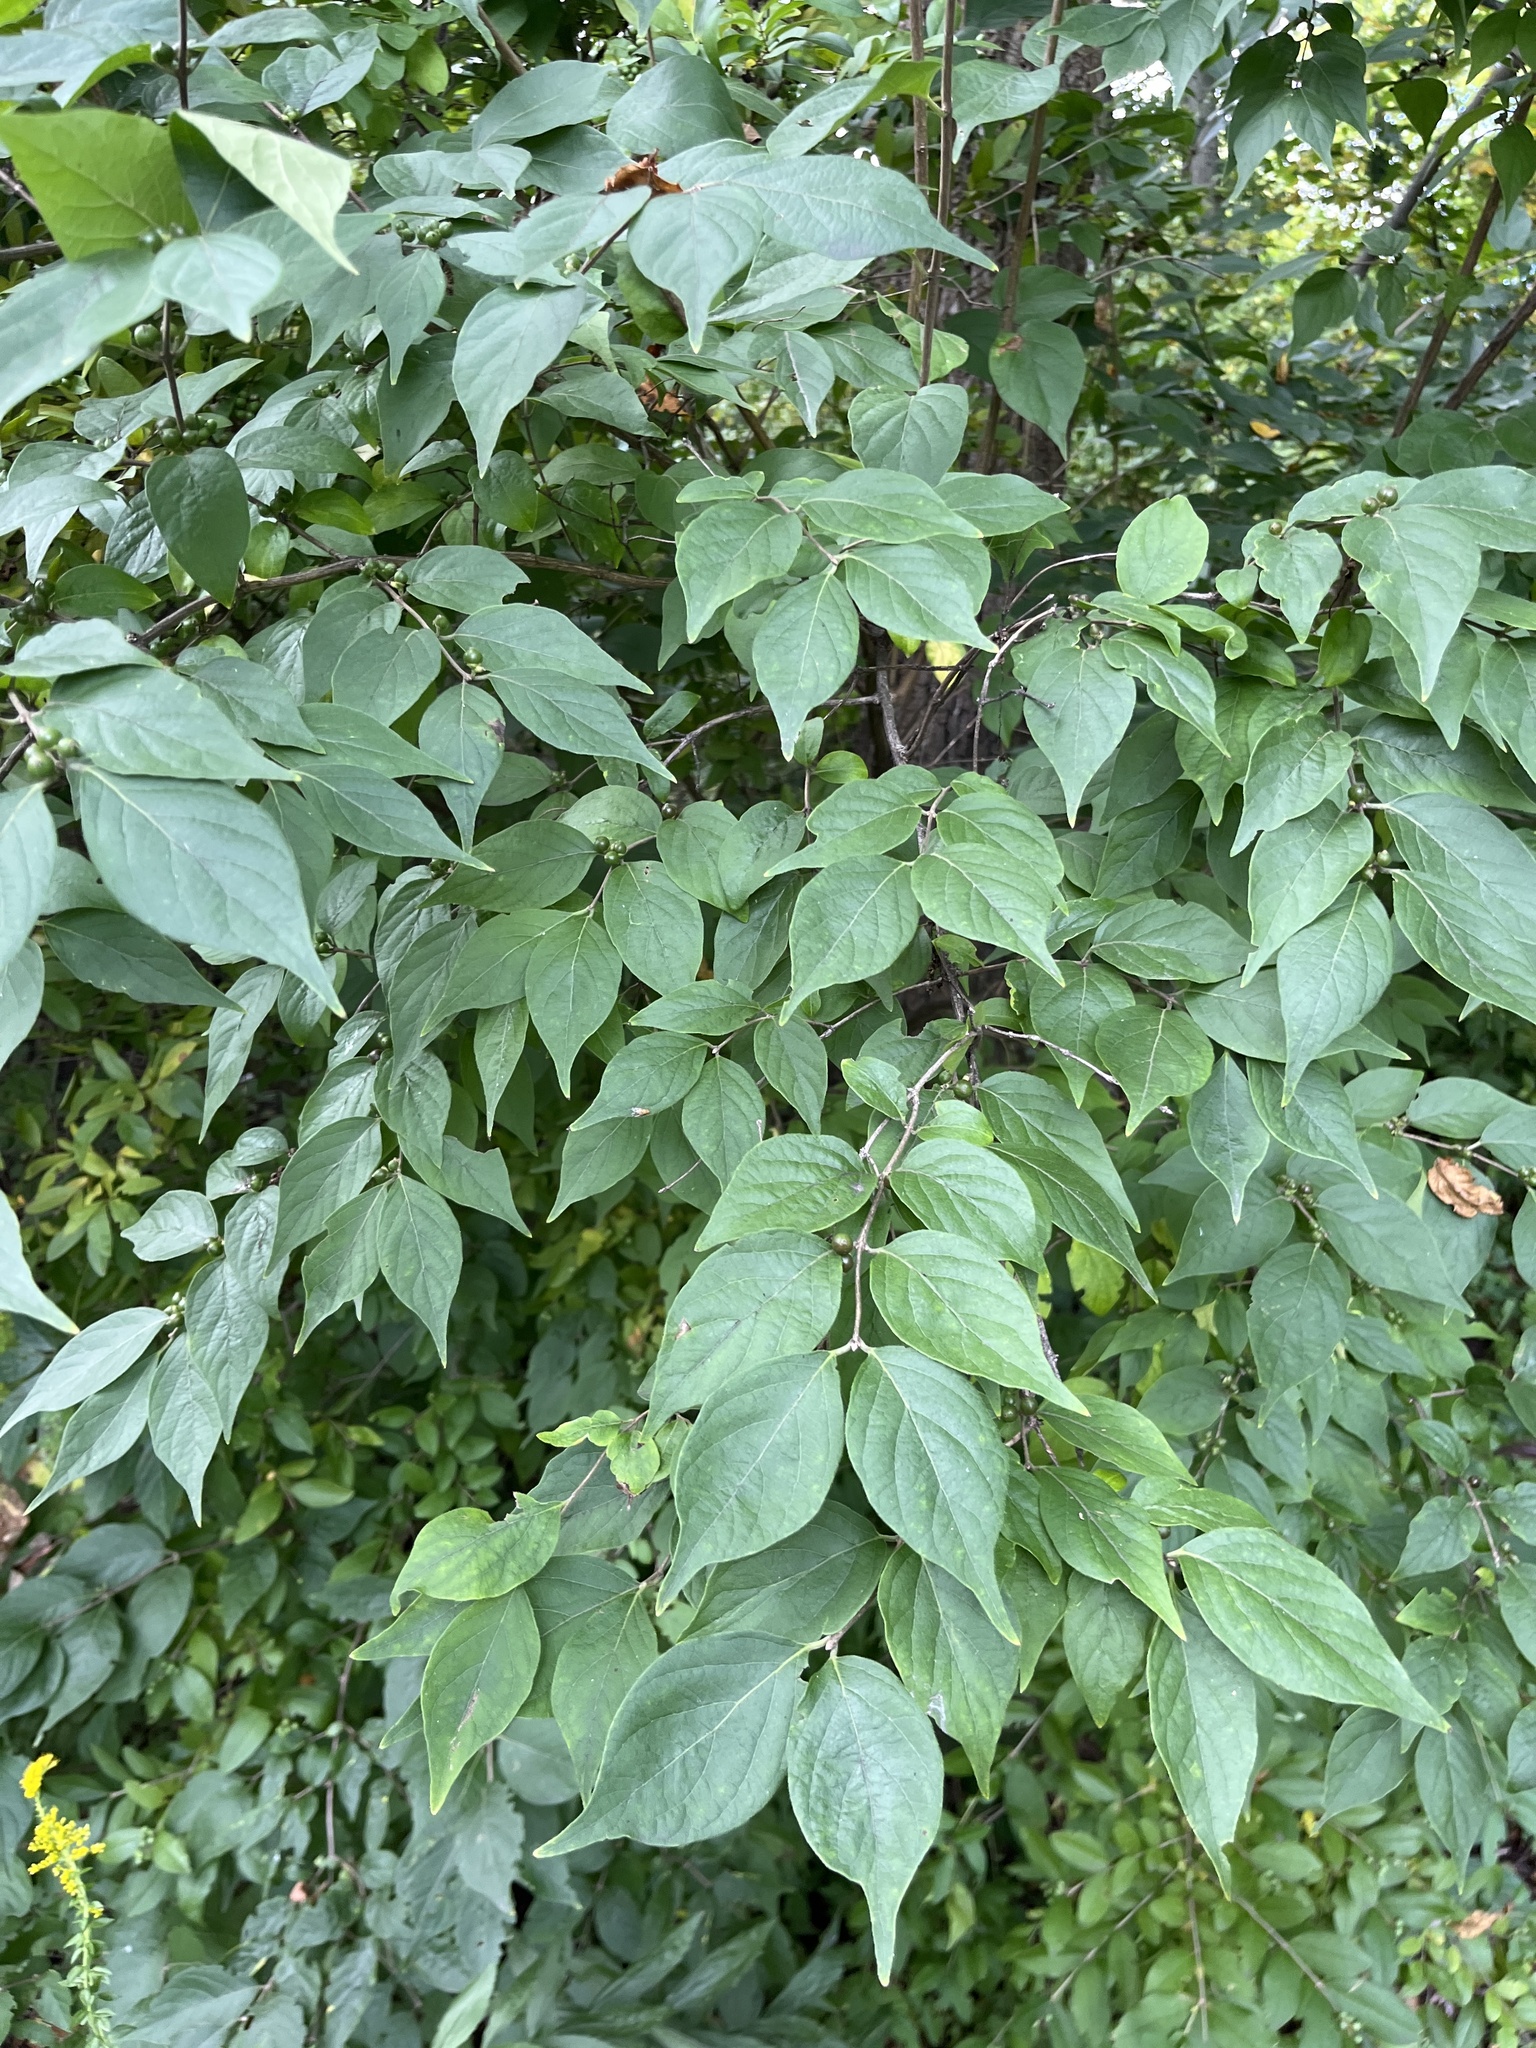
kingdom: Plantae
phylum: Tracheophyta
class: Magnoliopsida
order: Dipsacales
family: Caprifoliaceae
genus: Lonicera
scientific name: Lonicera maackii
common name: Amur honeysuckle
